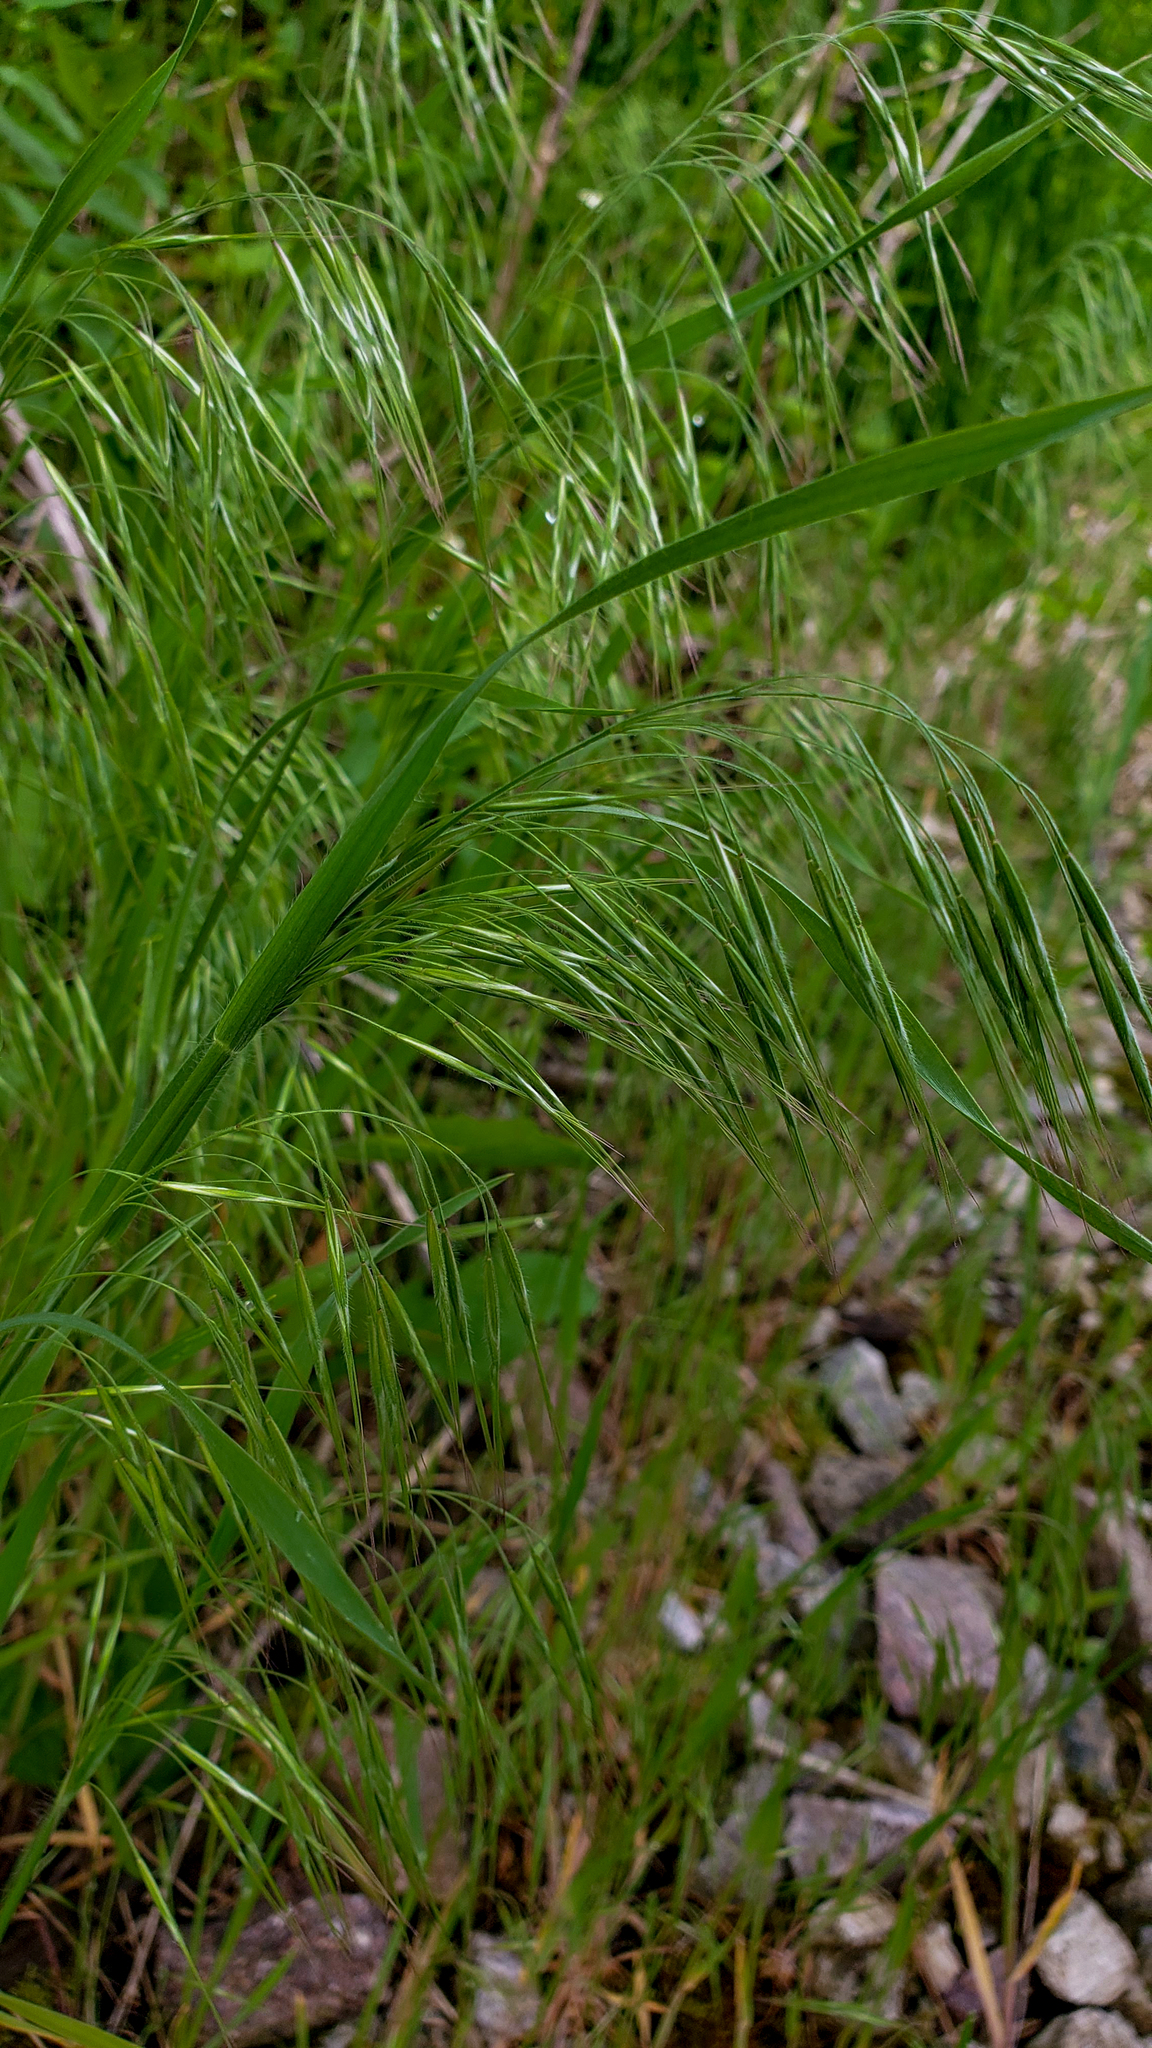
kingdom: Plantae
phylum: Tracheophyta
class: Liliopsida
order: Poales
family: Poaceae
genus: Bromus
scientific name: Bromus tectorum
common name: Cheatgrass
